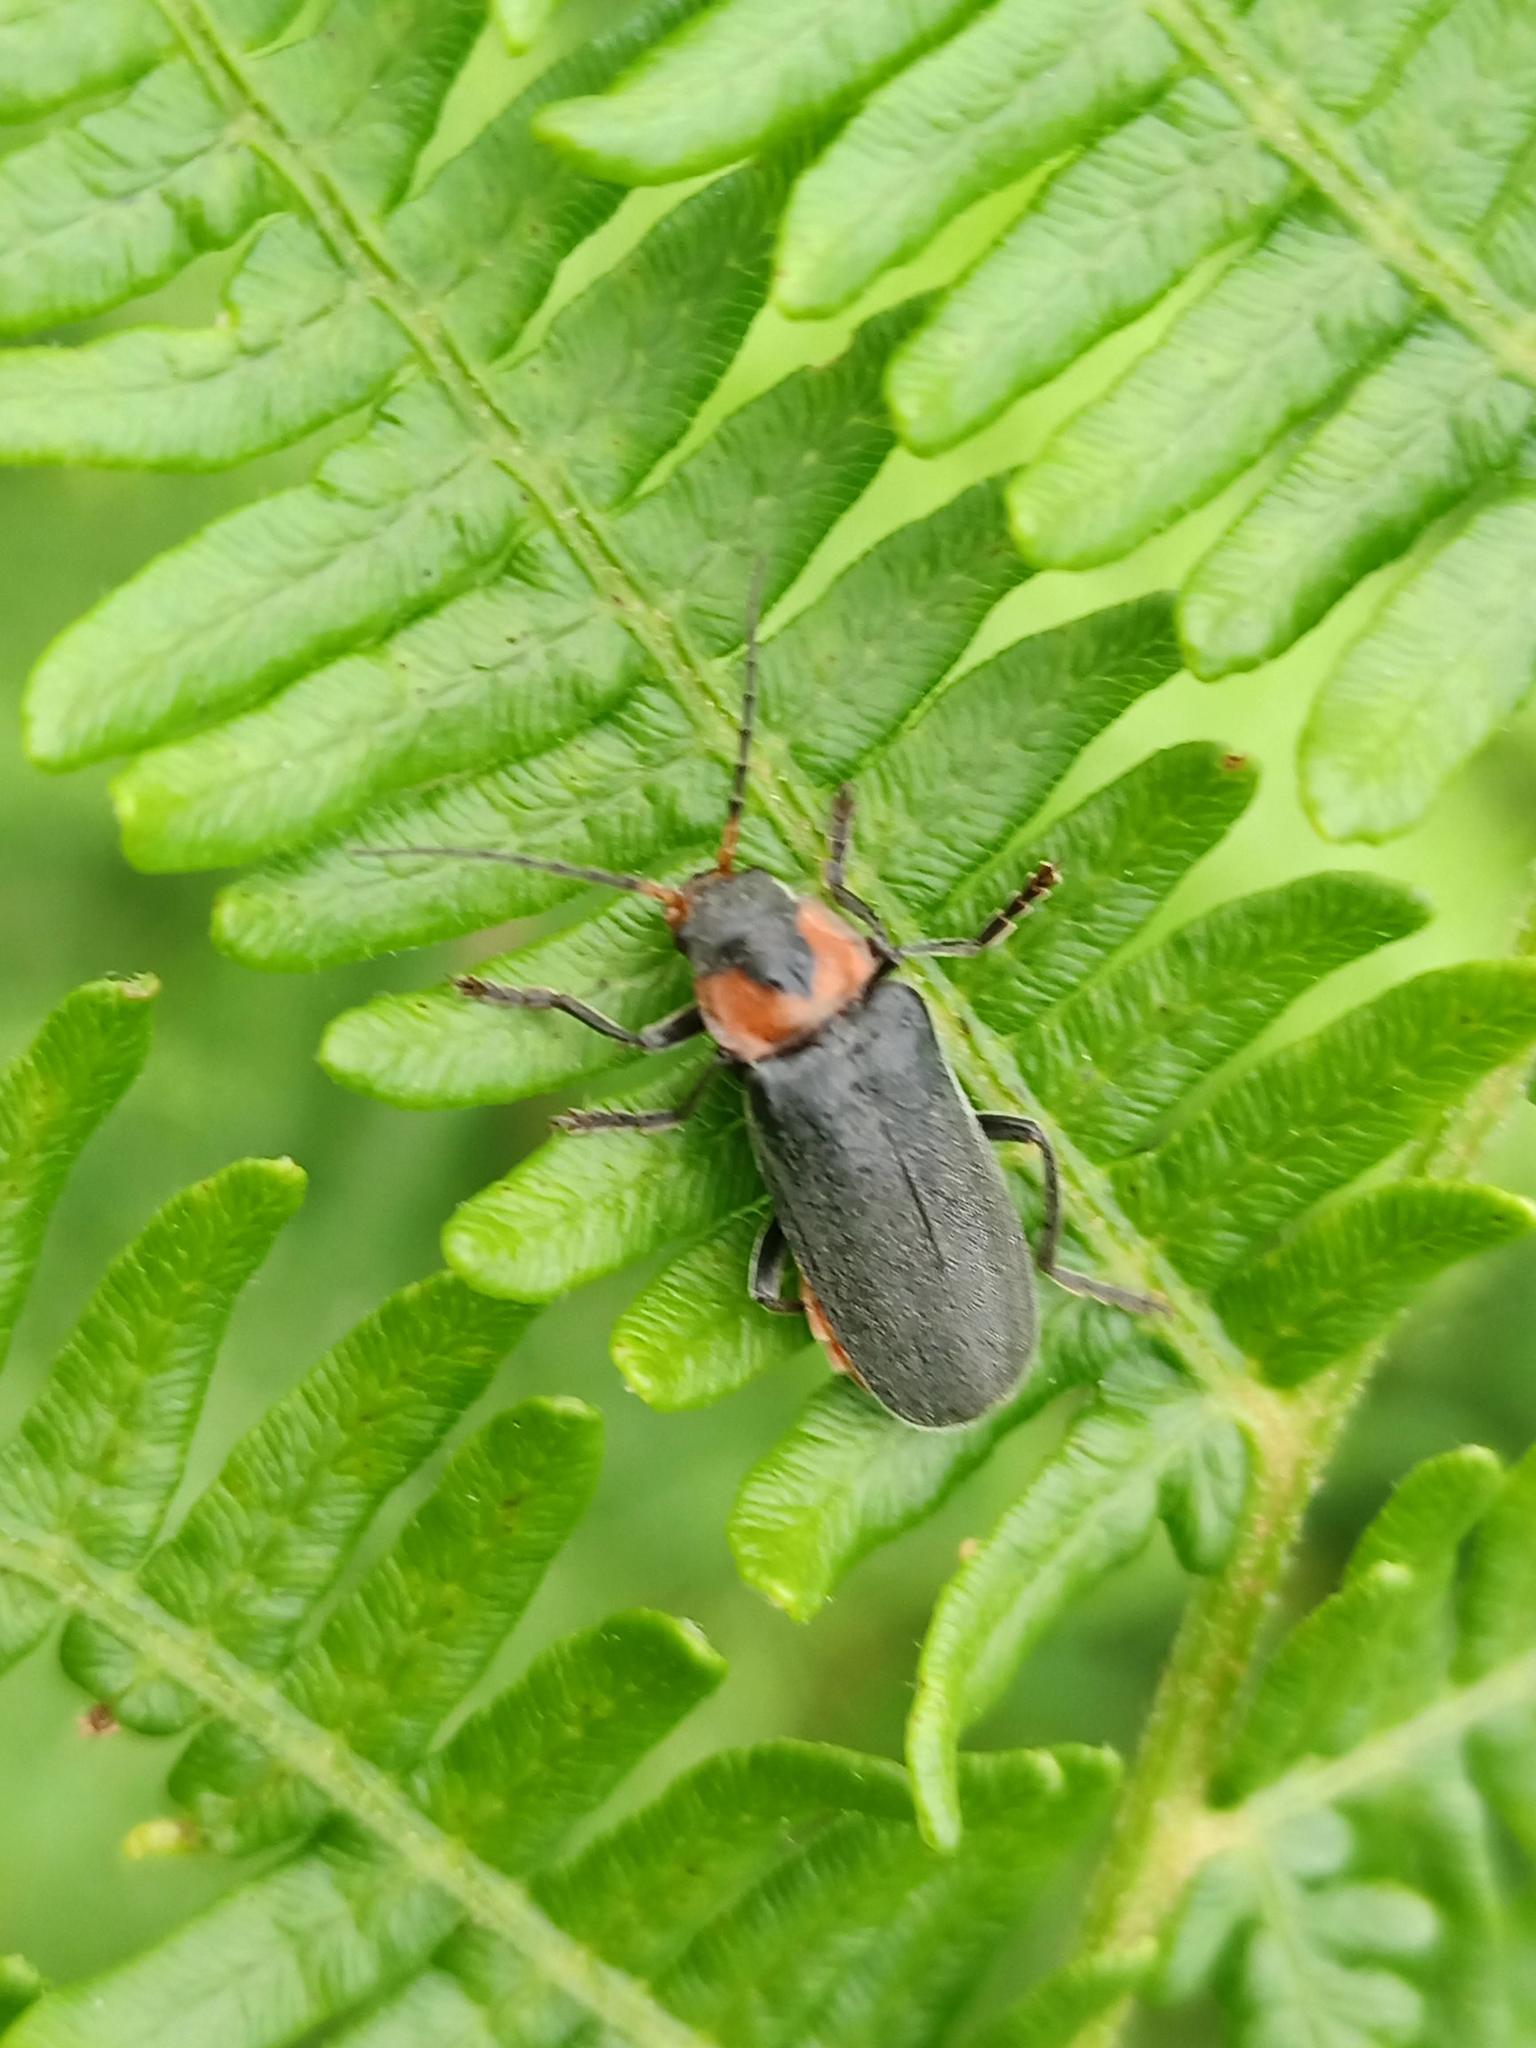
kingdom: Animalia
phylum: Arthropoda
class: Insecta
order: Coleoptera
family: Cantharidae
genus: Cantharis
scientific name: Cantharis reichei
